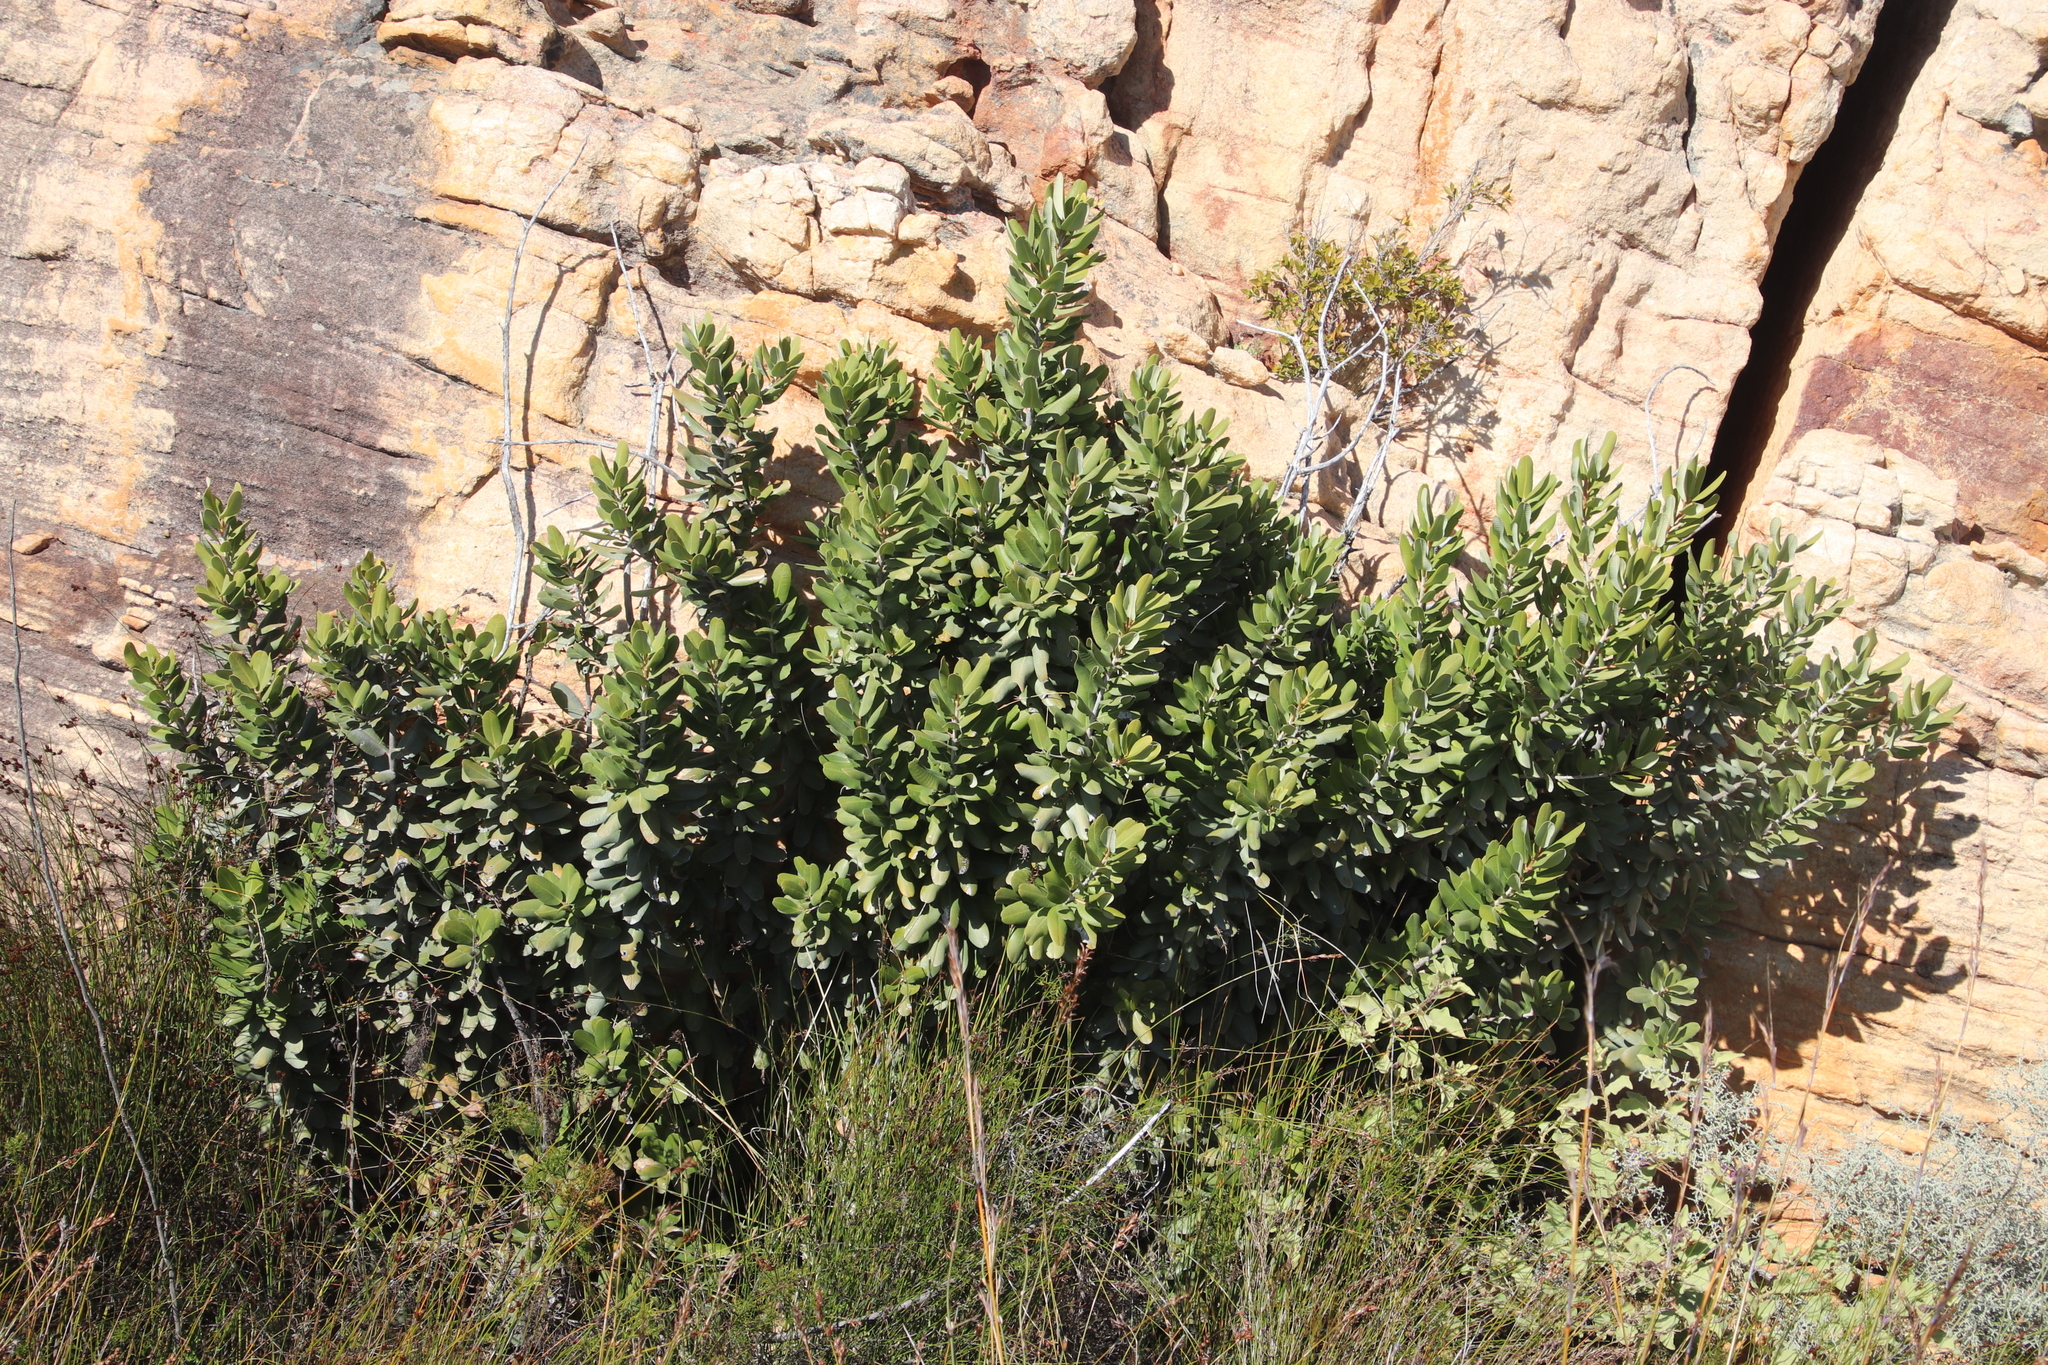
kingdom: Plantae
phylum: Tracheophyta
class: Magnoliopsida
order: Sapindales
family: Anacardiaceae
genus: Heeria
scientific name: Heeria argentea
